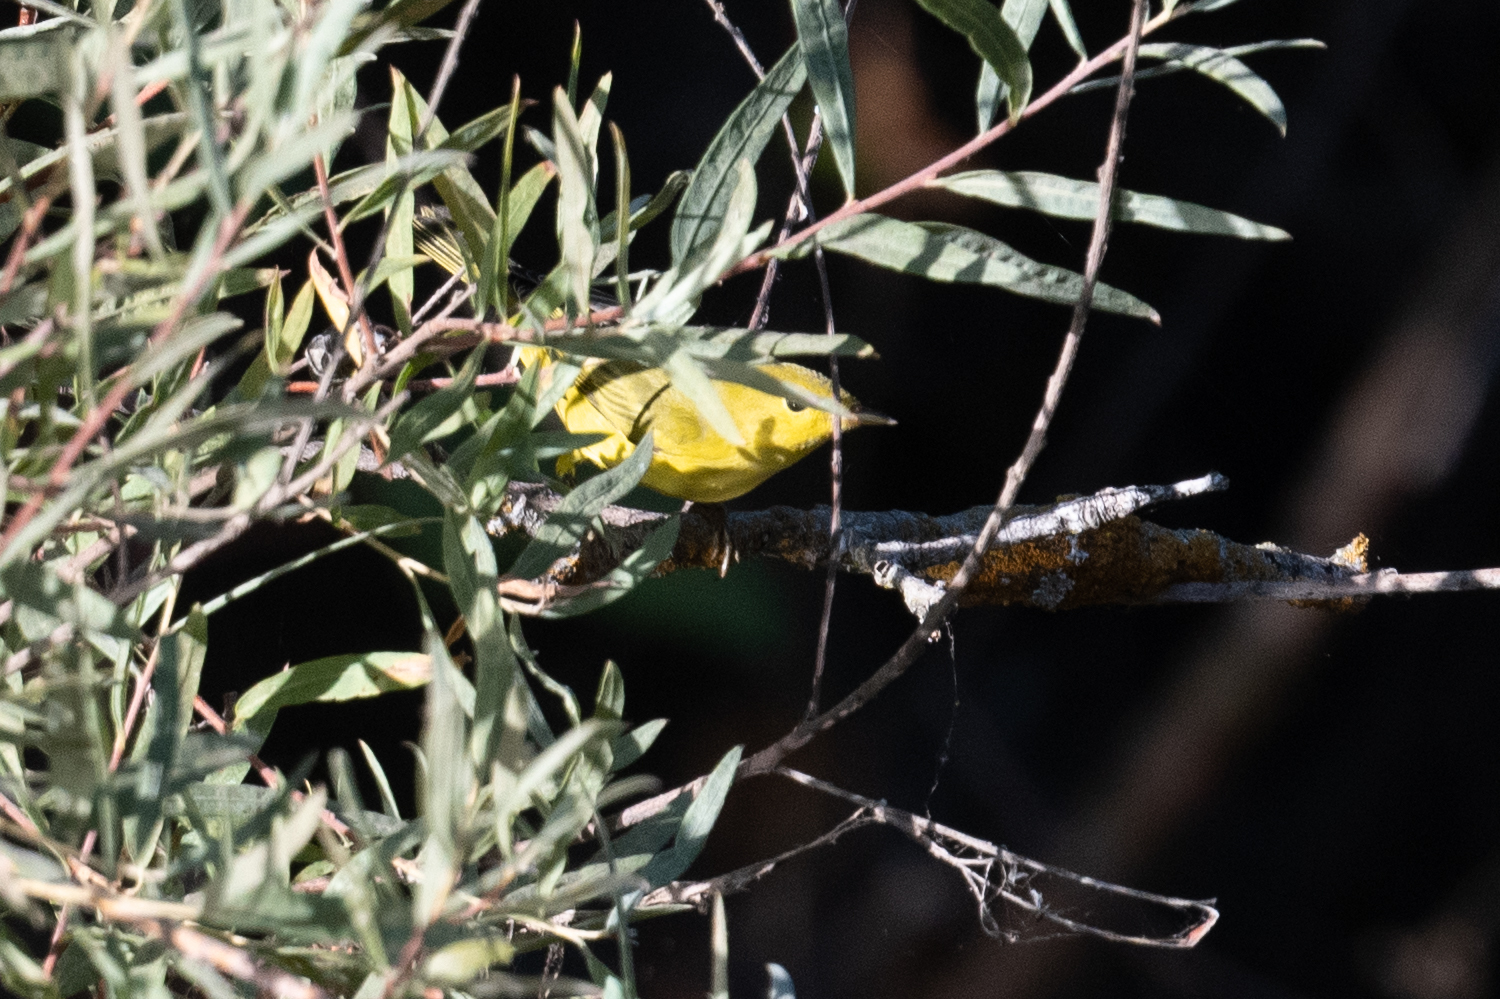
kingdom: Animalia
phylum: Chordata
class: Aves
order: Passeriformes
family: Parulidae
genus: Cardellina
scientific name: Cardellina pusilla
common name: Wilson's warbler
